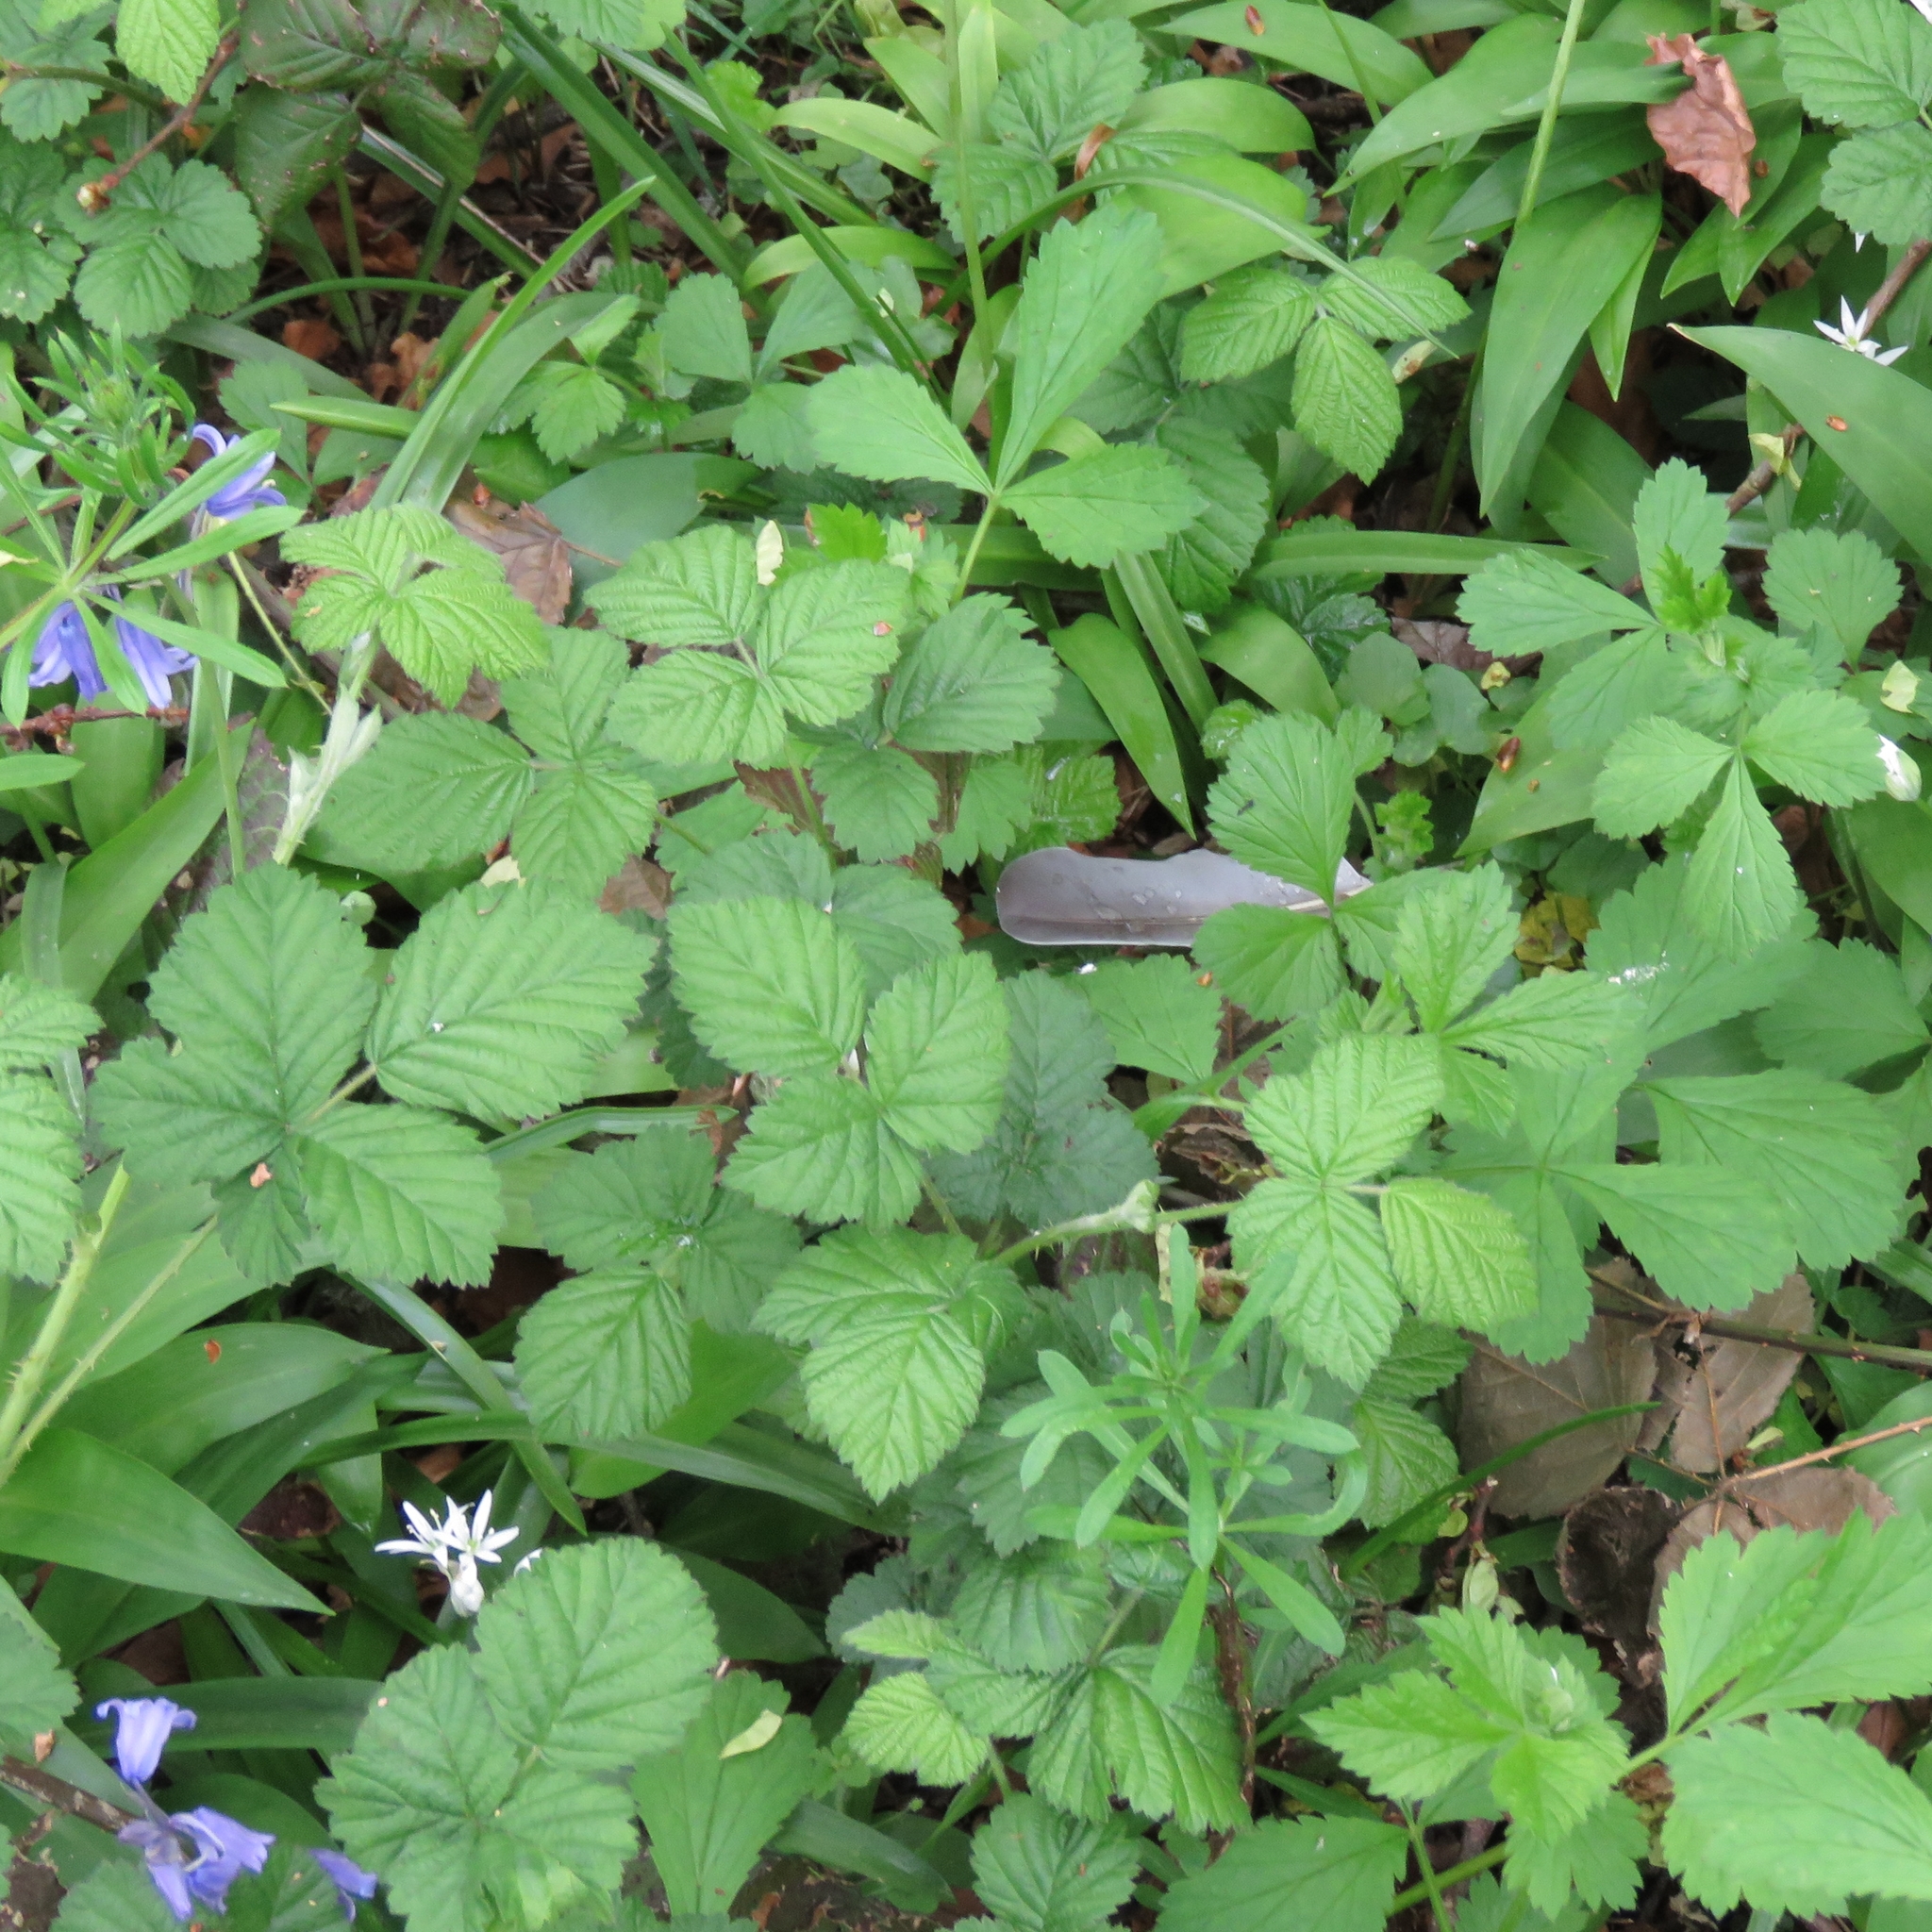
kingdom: Plantae
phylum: Tracheophyta
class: Magnoliopsida
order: Rosales
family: Rosaceae
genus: Rubus
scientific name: Rubus
